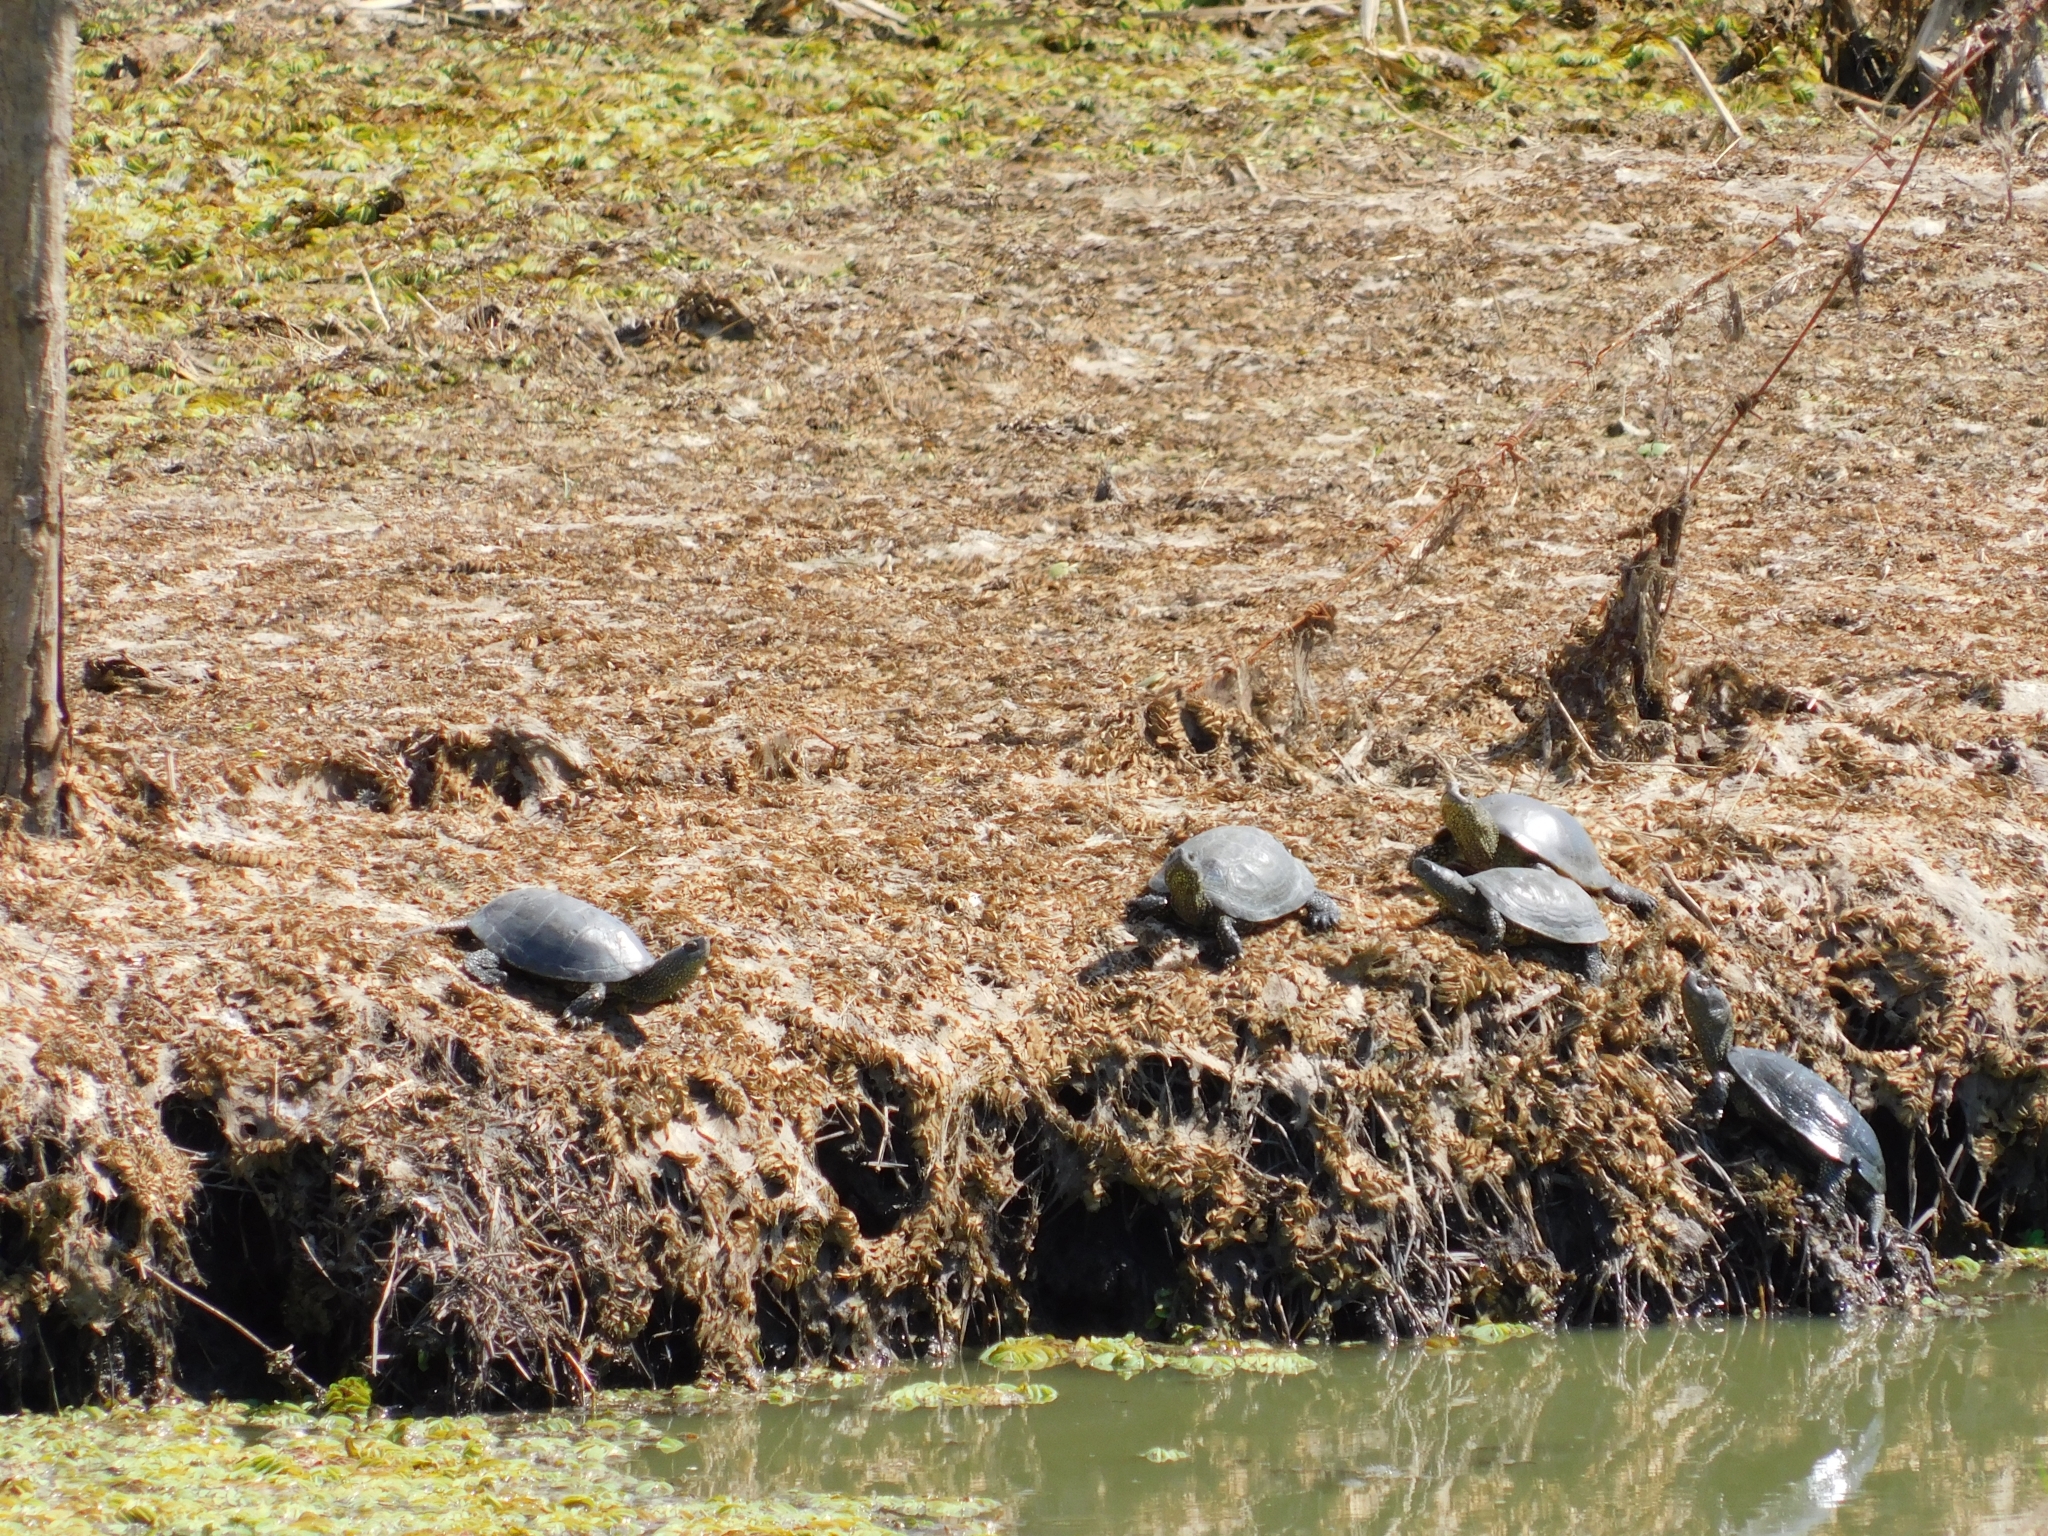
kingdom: Animalia
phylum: Chordata
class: Testudines
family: Emydidae
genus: Emys
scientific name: Emys orbicularis
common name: European pond turtle
